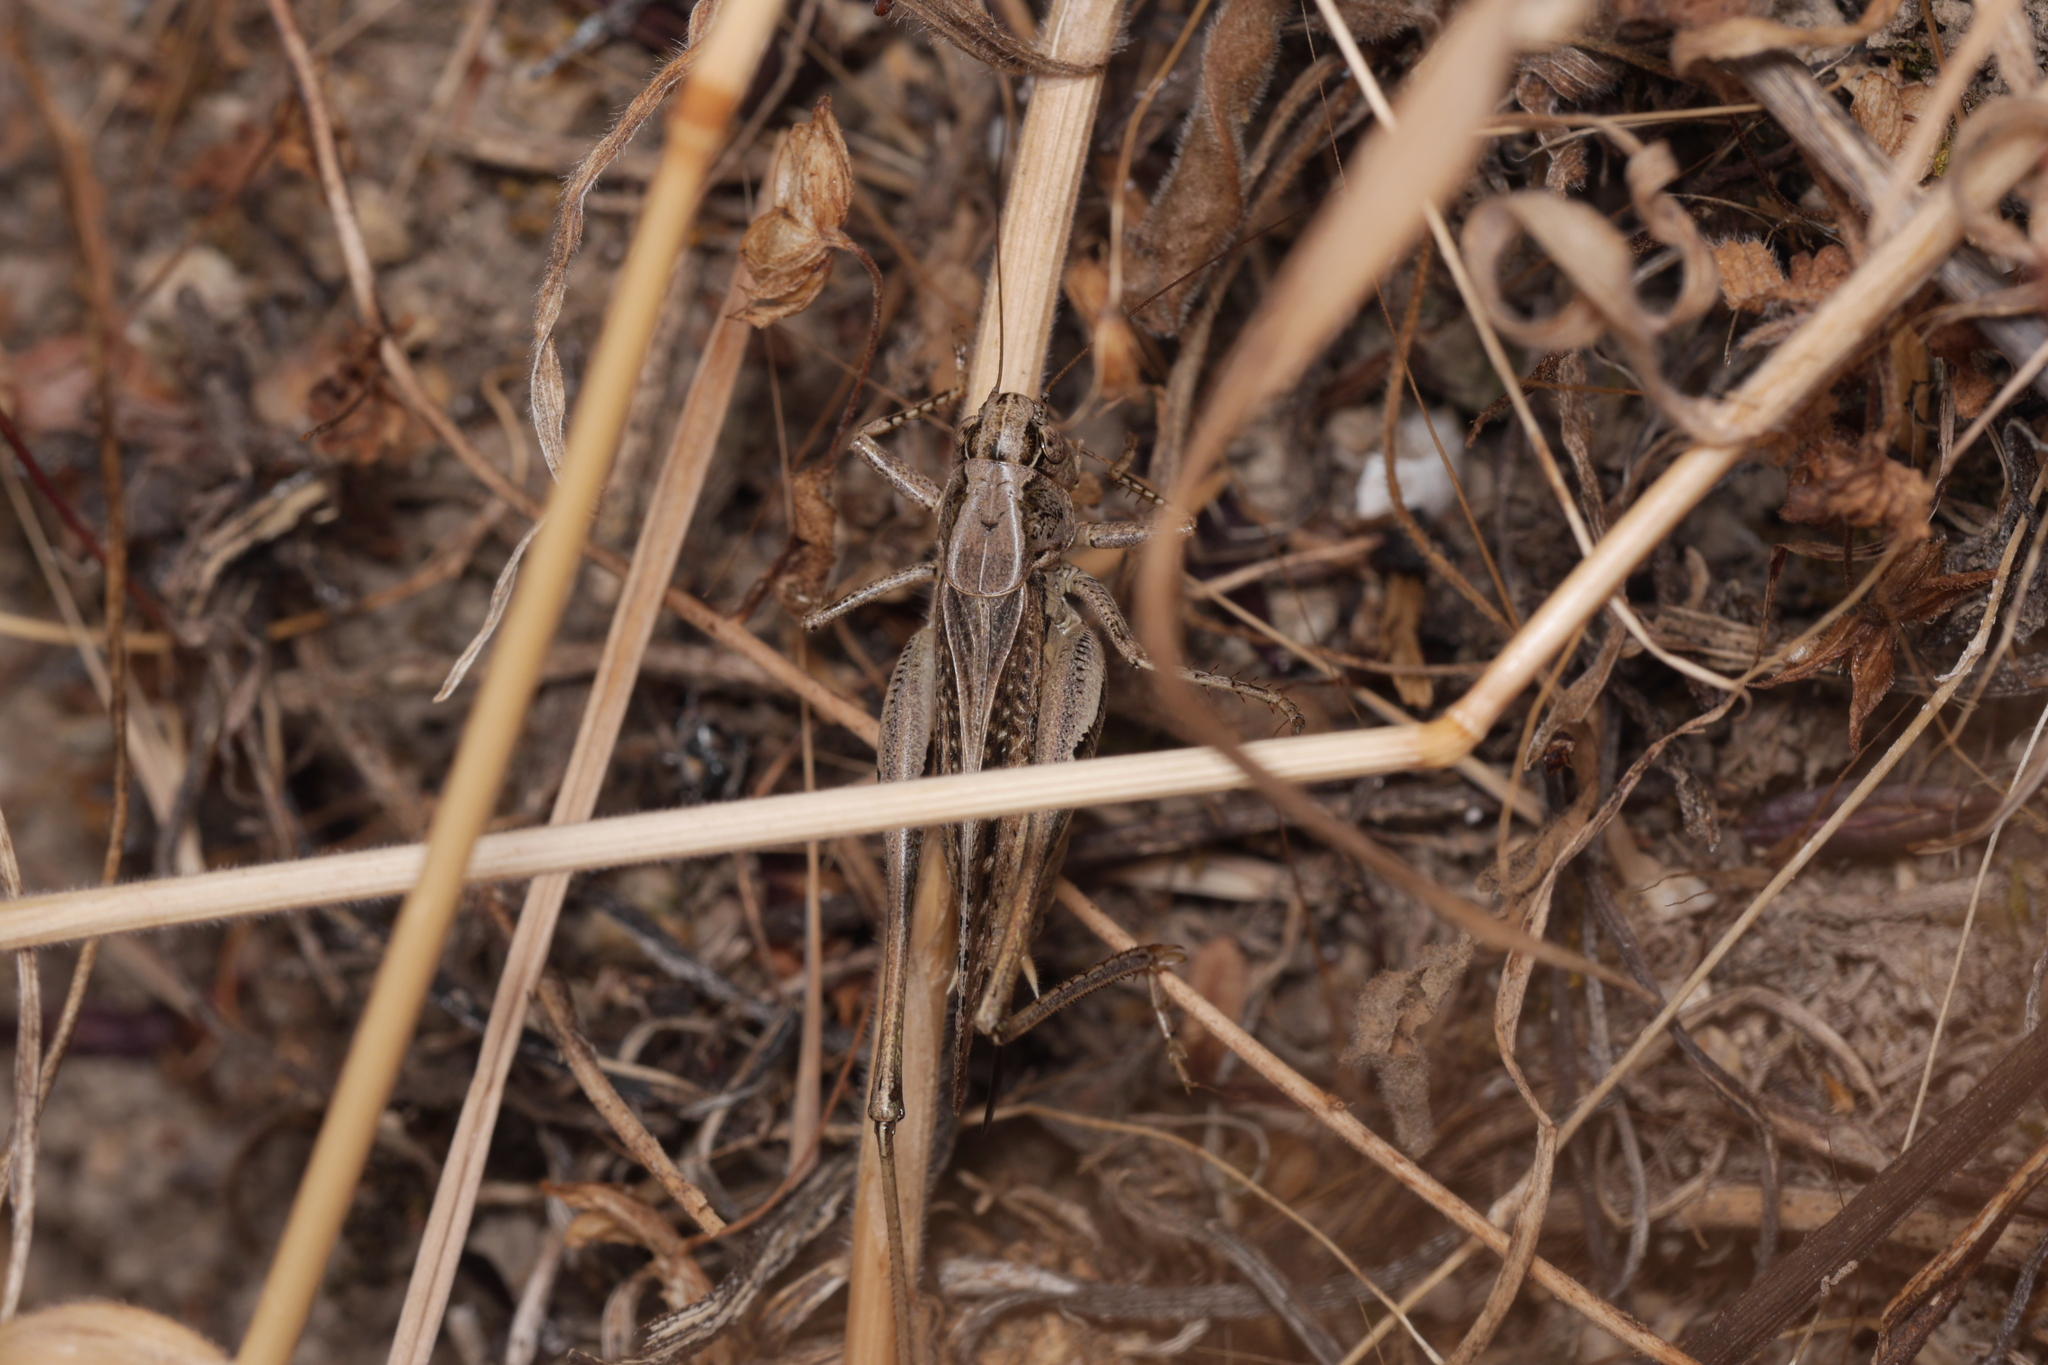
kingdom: Animalia
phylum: Arthropoda
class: Insecta
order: Orthoptera
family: Tettigoniidae
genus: Platycleis
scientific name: Platycleis albopunctata
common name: Grey bush-cricket
